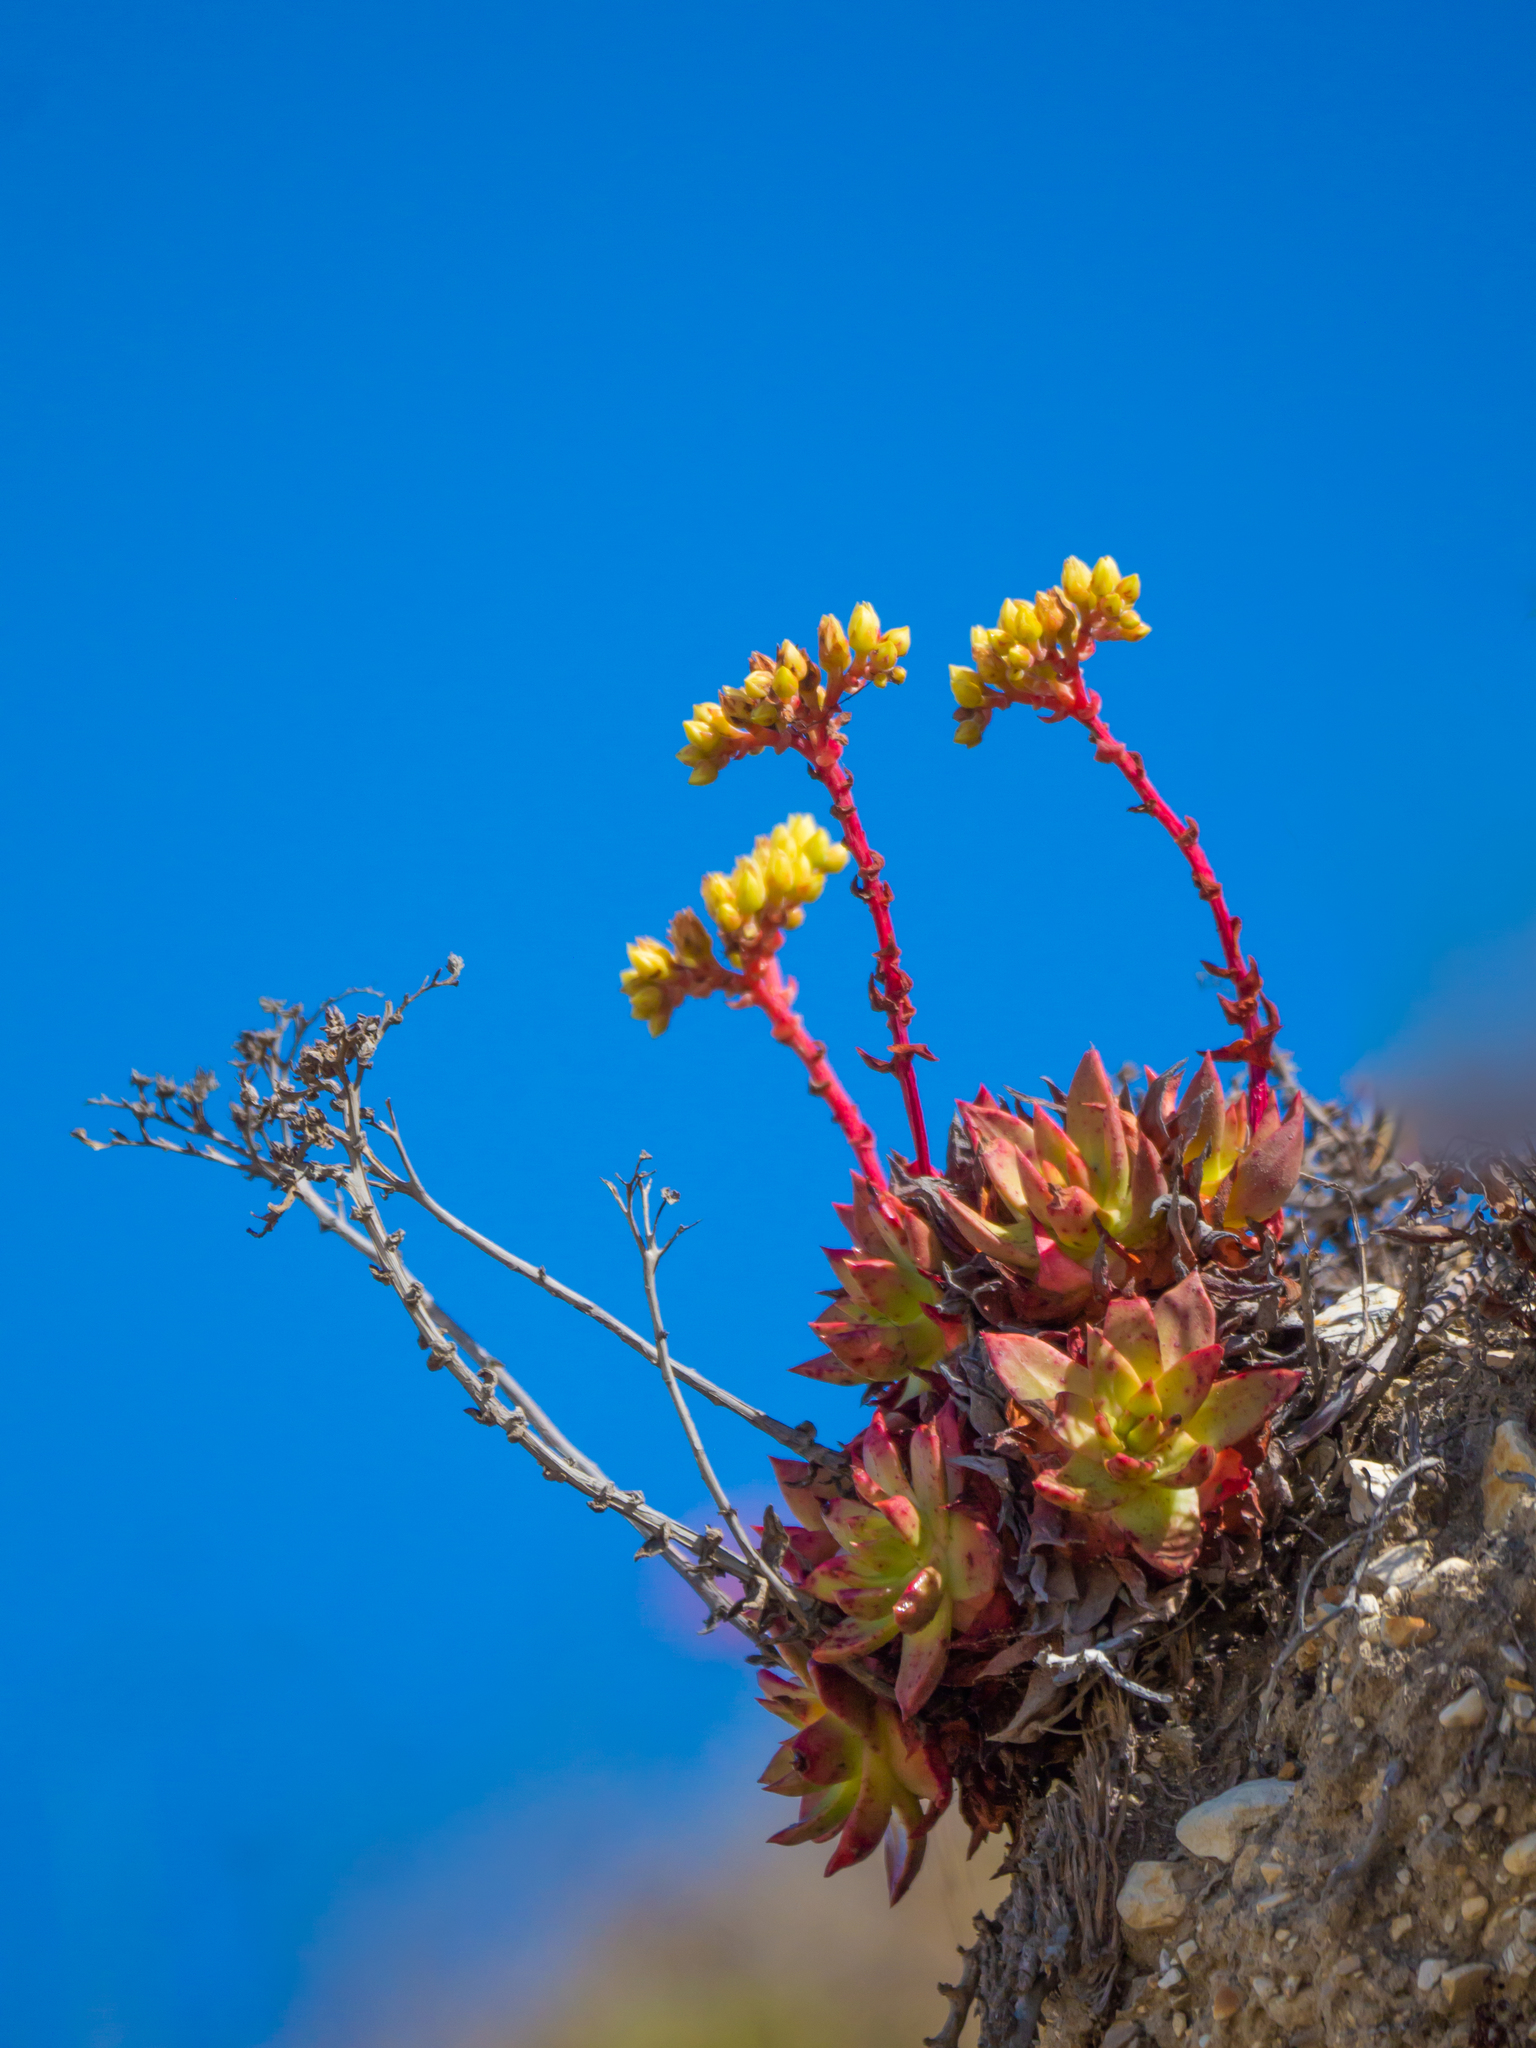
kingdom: Plantae
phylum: Tracheophyta
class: Magnoliopsida
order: Saxifragales
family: Crassulaceae
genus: Dudleya
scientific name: Dudleya farinosa
